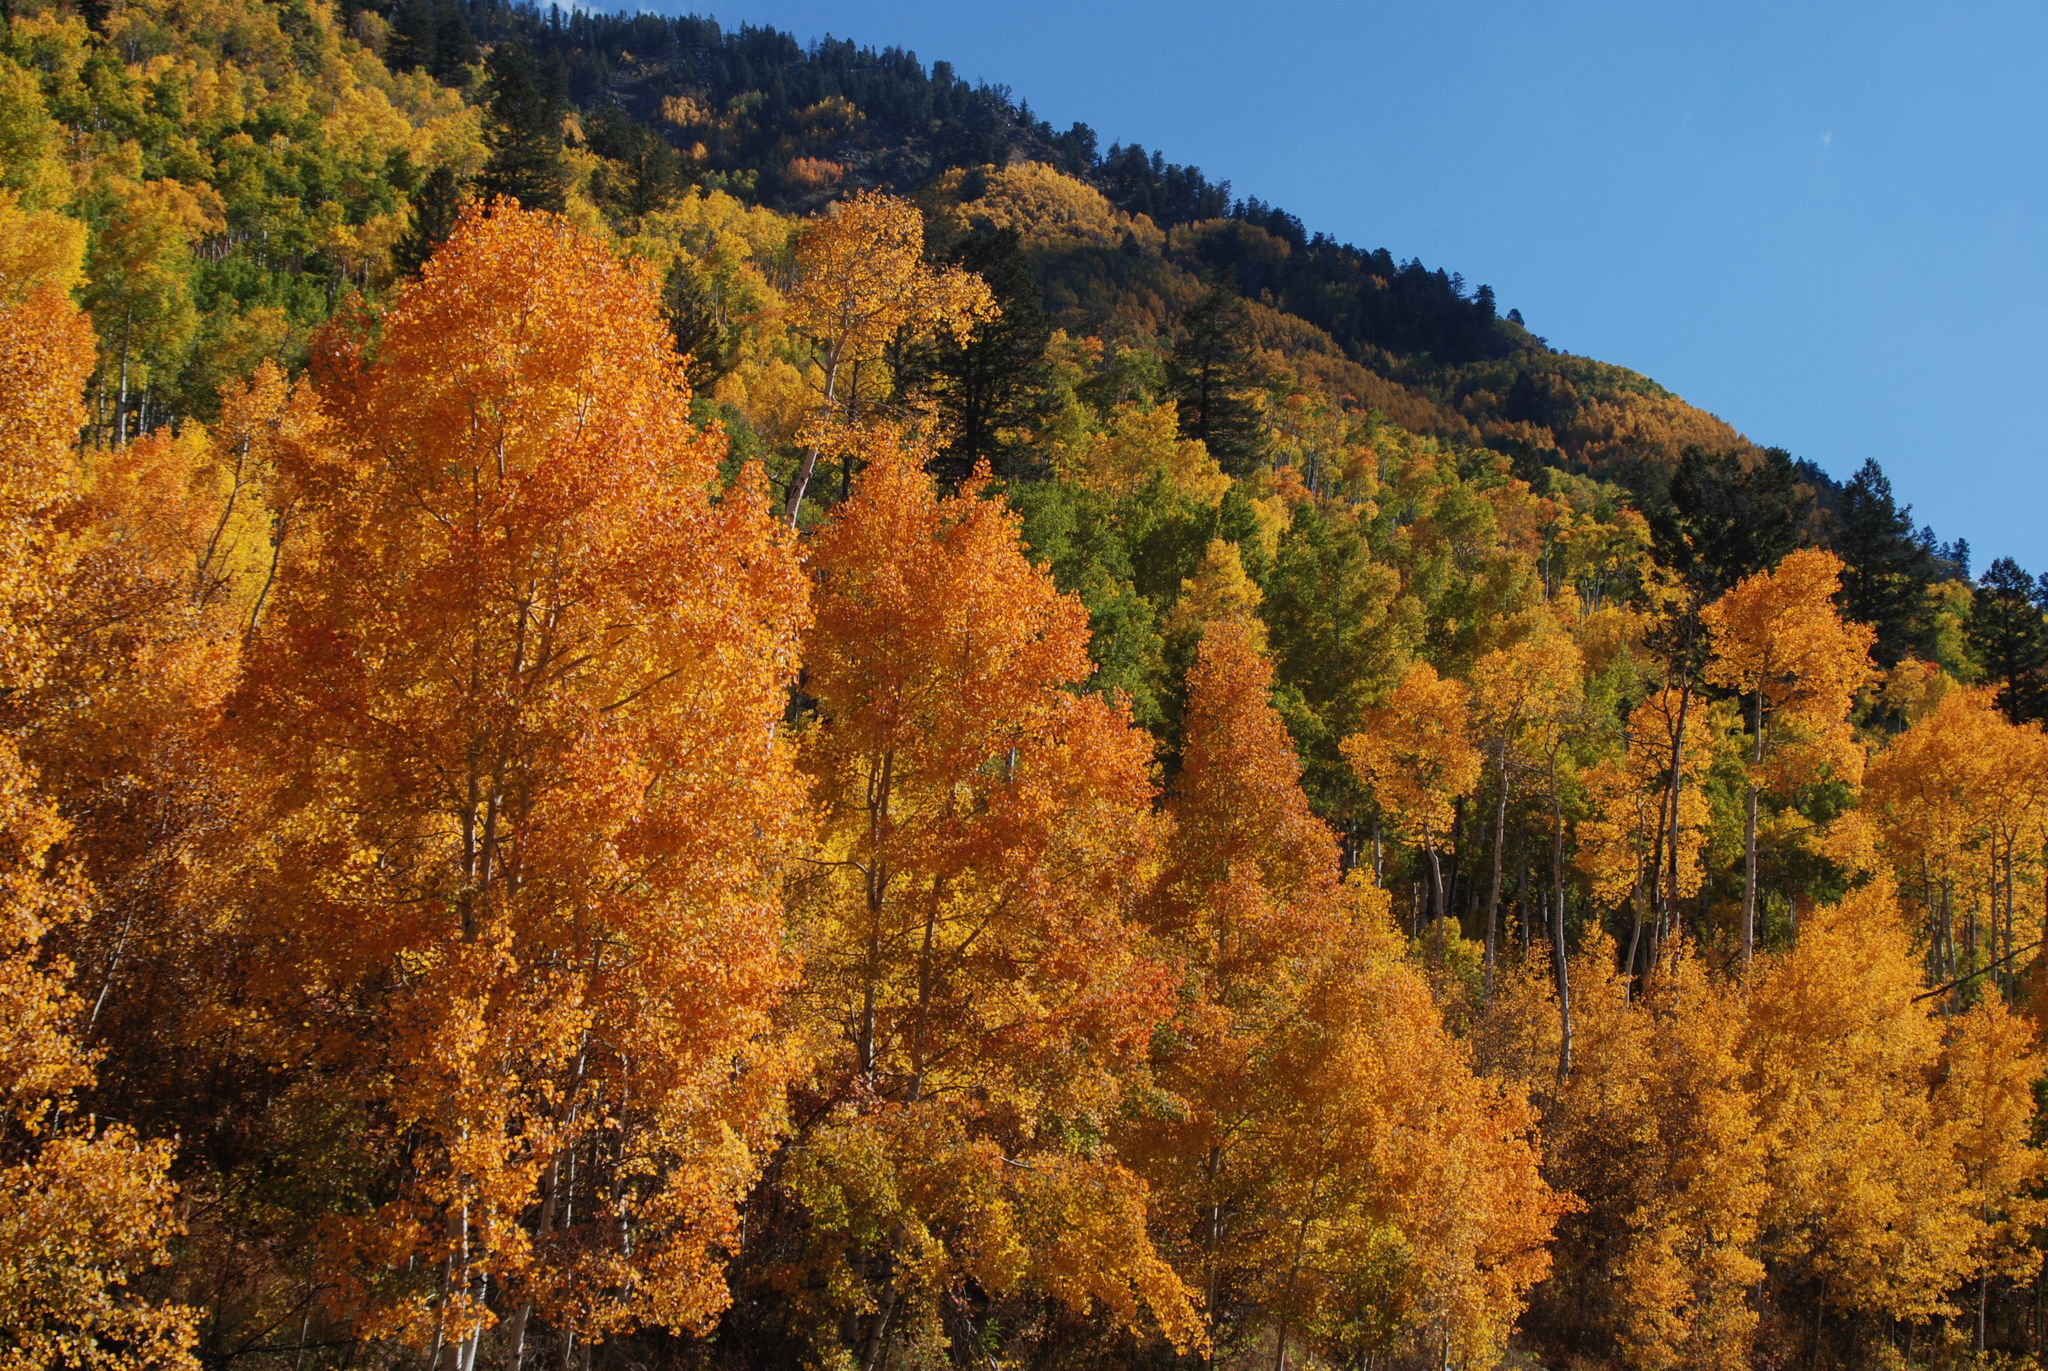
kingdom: Plantae
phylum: Tracheophyta
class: Magnoliopsida
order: Malpighiales
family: Salicaceae
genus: Populus
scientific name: Populus tremuloides
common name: Quaking aspen
